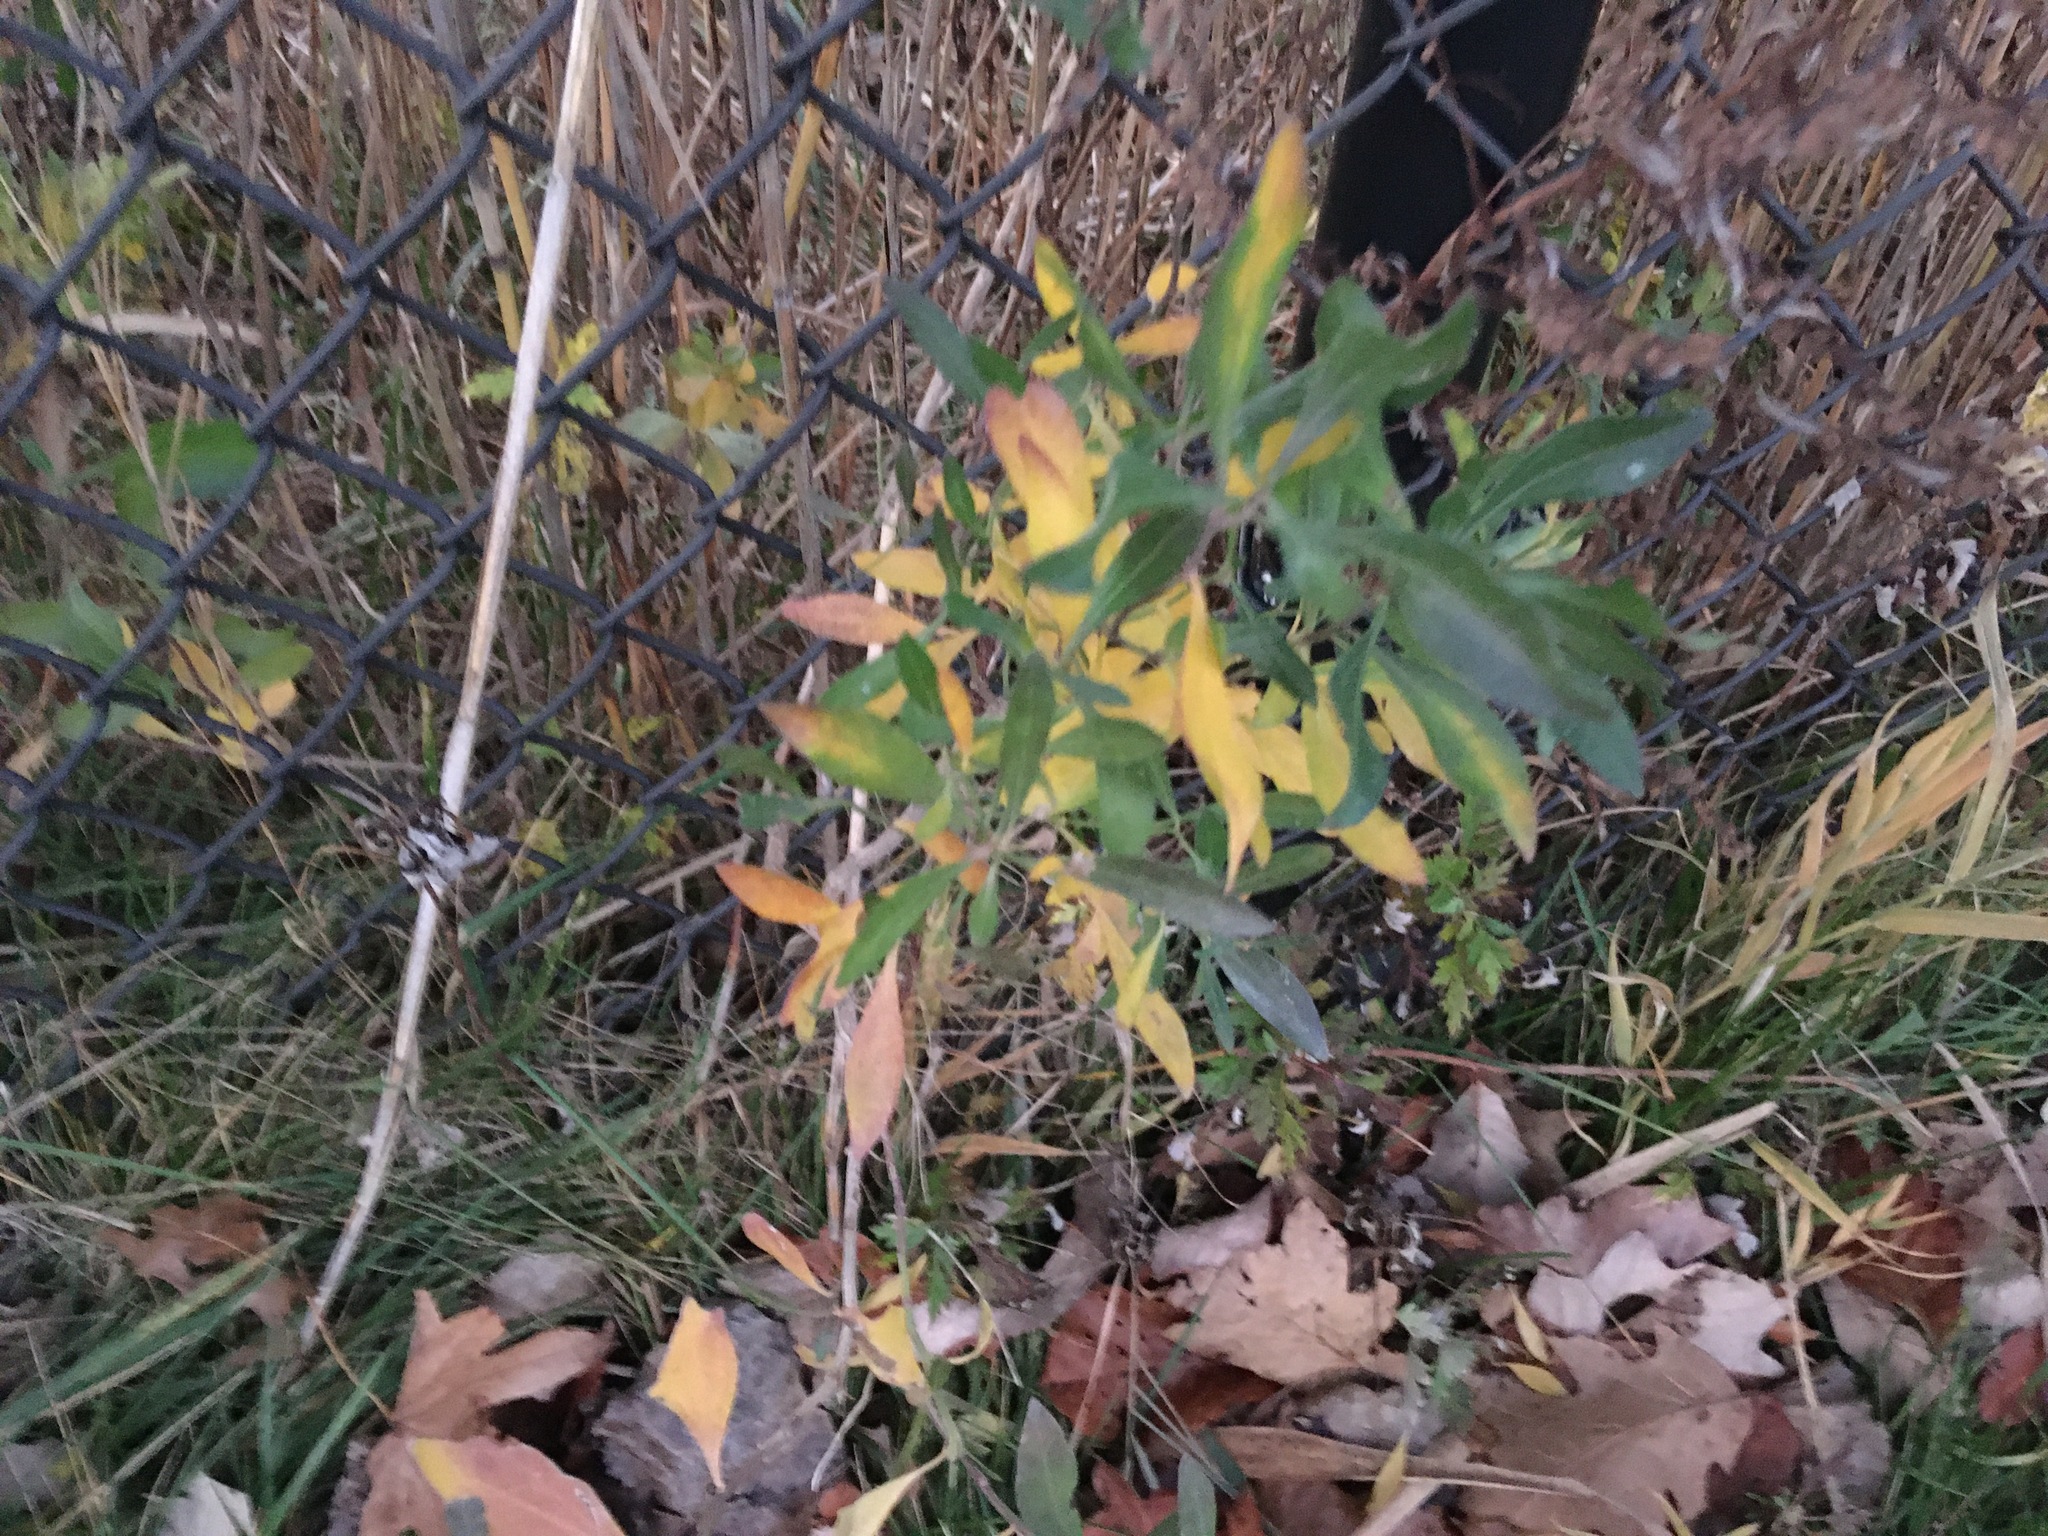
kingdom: Plantae
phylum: Tracheophyta
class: Magnoliopsida
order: Asterales
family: Asteraceae
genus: Baccharis
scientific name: Baccharis halimifolia
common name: Eastern baccharis
